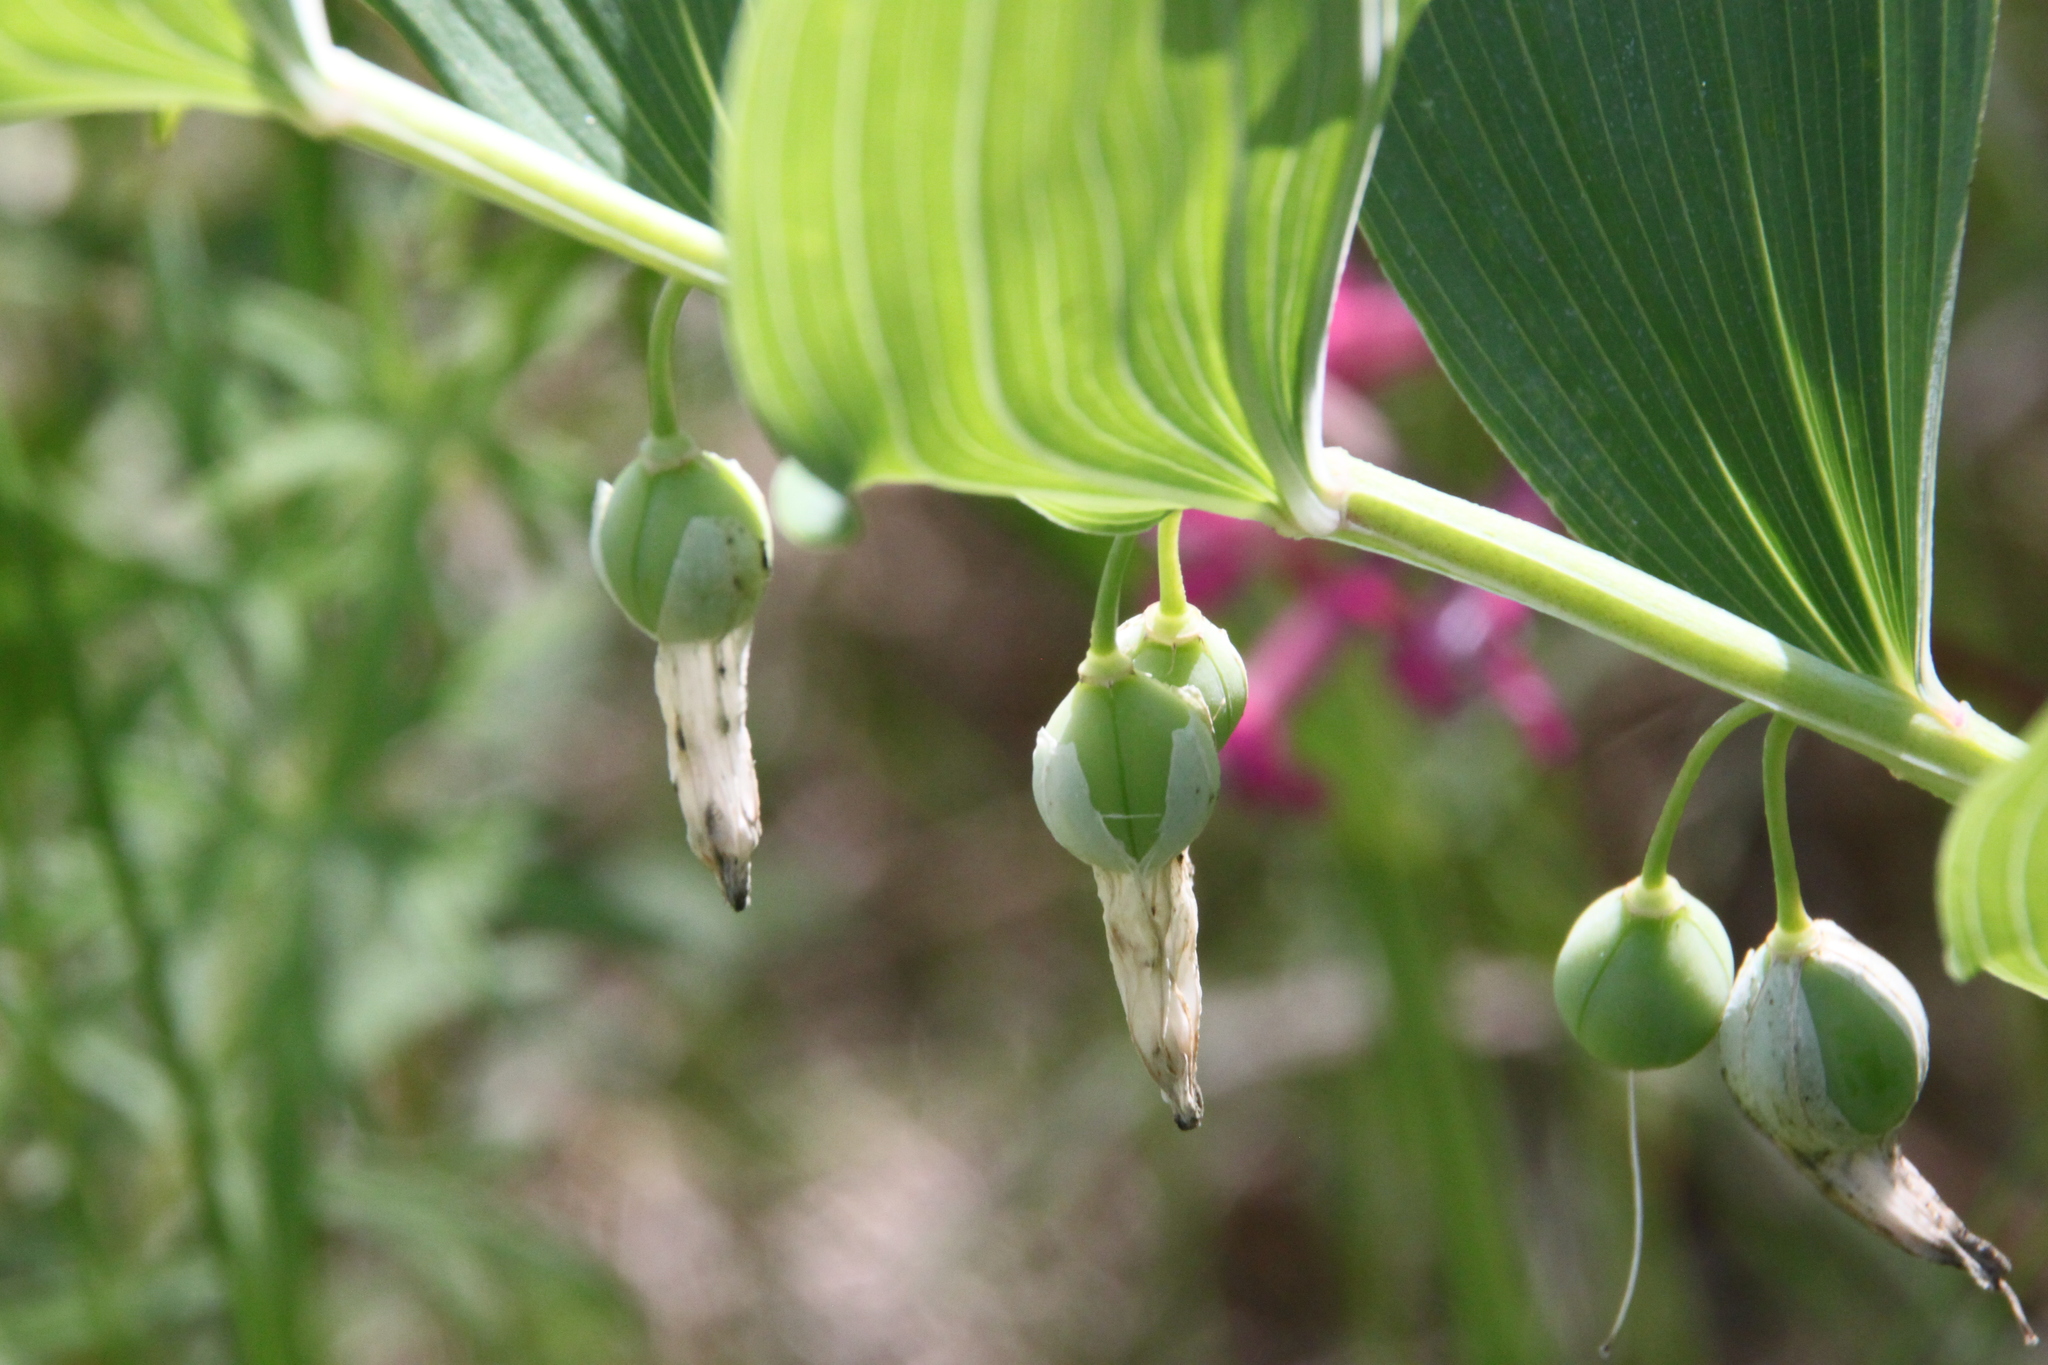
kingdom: Plantae
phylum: Tracheophyta
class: Liliopsida
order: Asparagales
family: Asparagaceae
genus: Polygonatum
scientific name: Polygonatum odoratum
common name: Angular solomon's-seal
